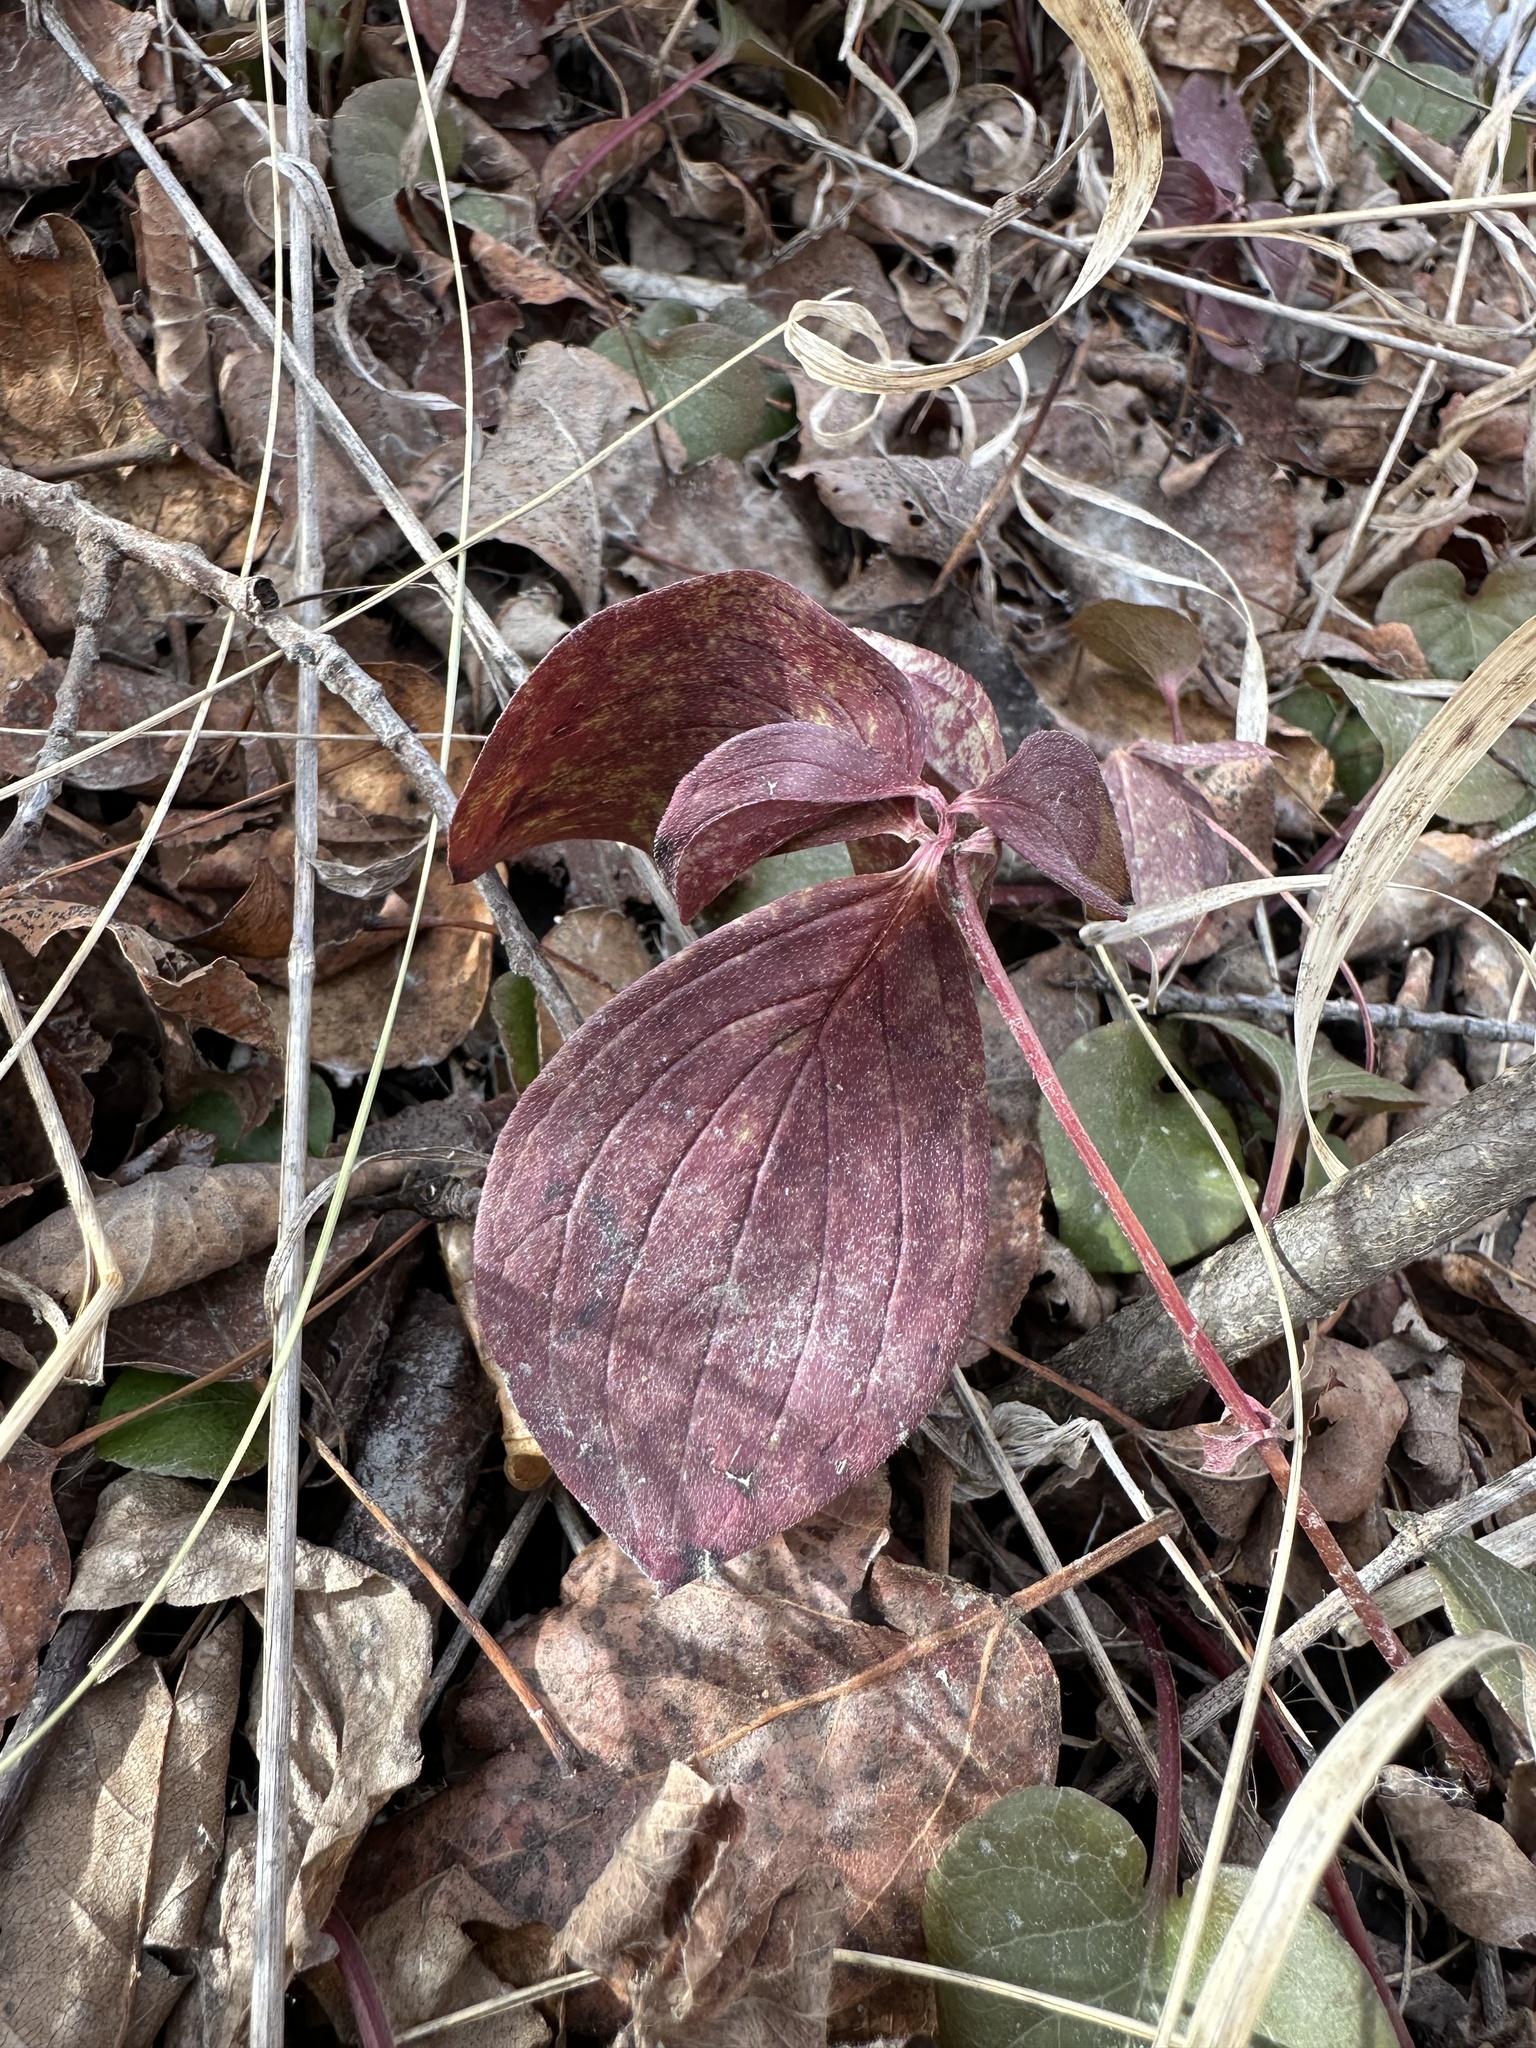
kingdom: Plantae
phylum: Tracheophyta
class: Magnoliopsida
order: Cornales
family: Cornaceae
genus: Cornus
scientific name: Cornus canadensis
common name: Creeping dogwood
